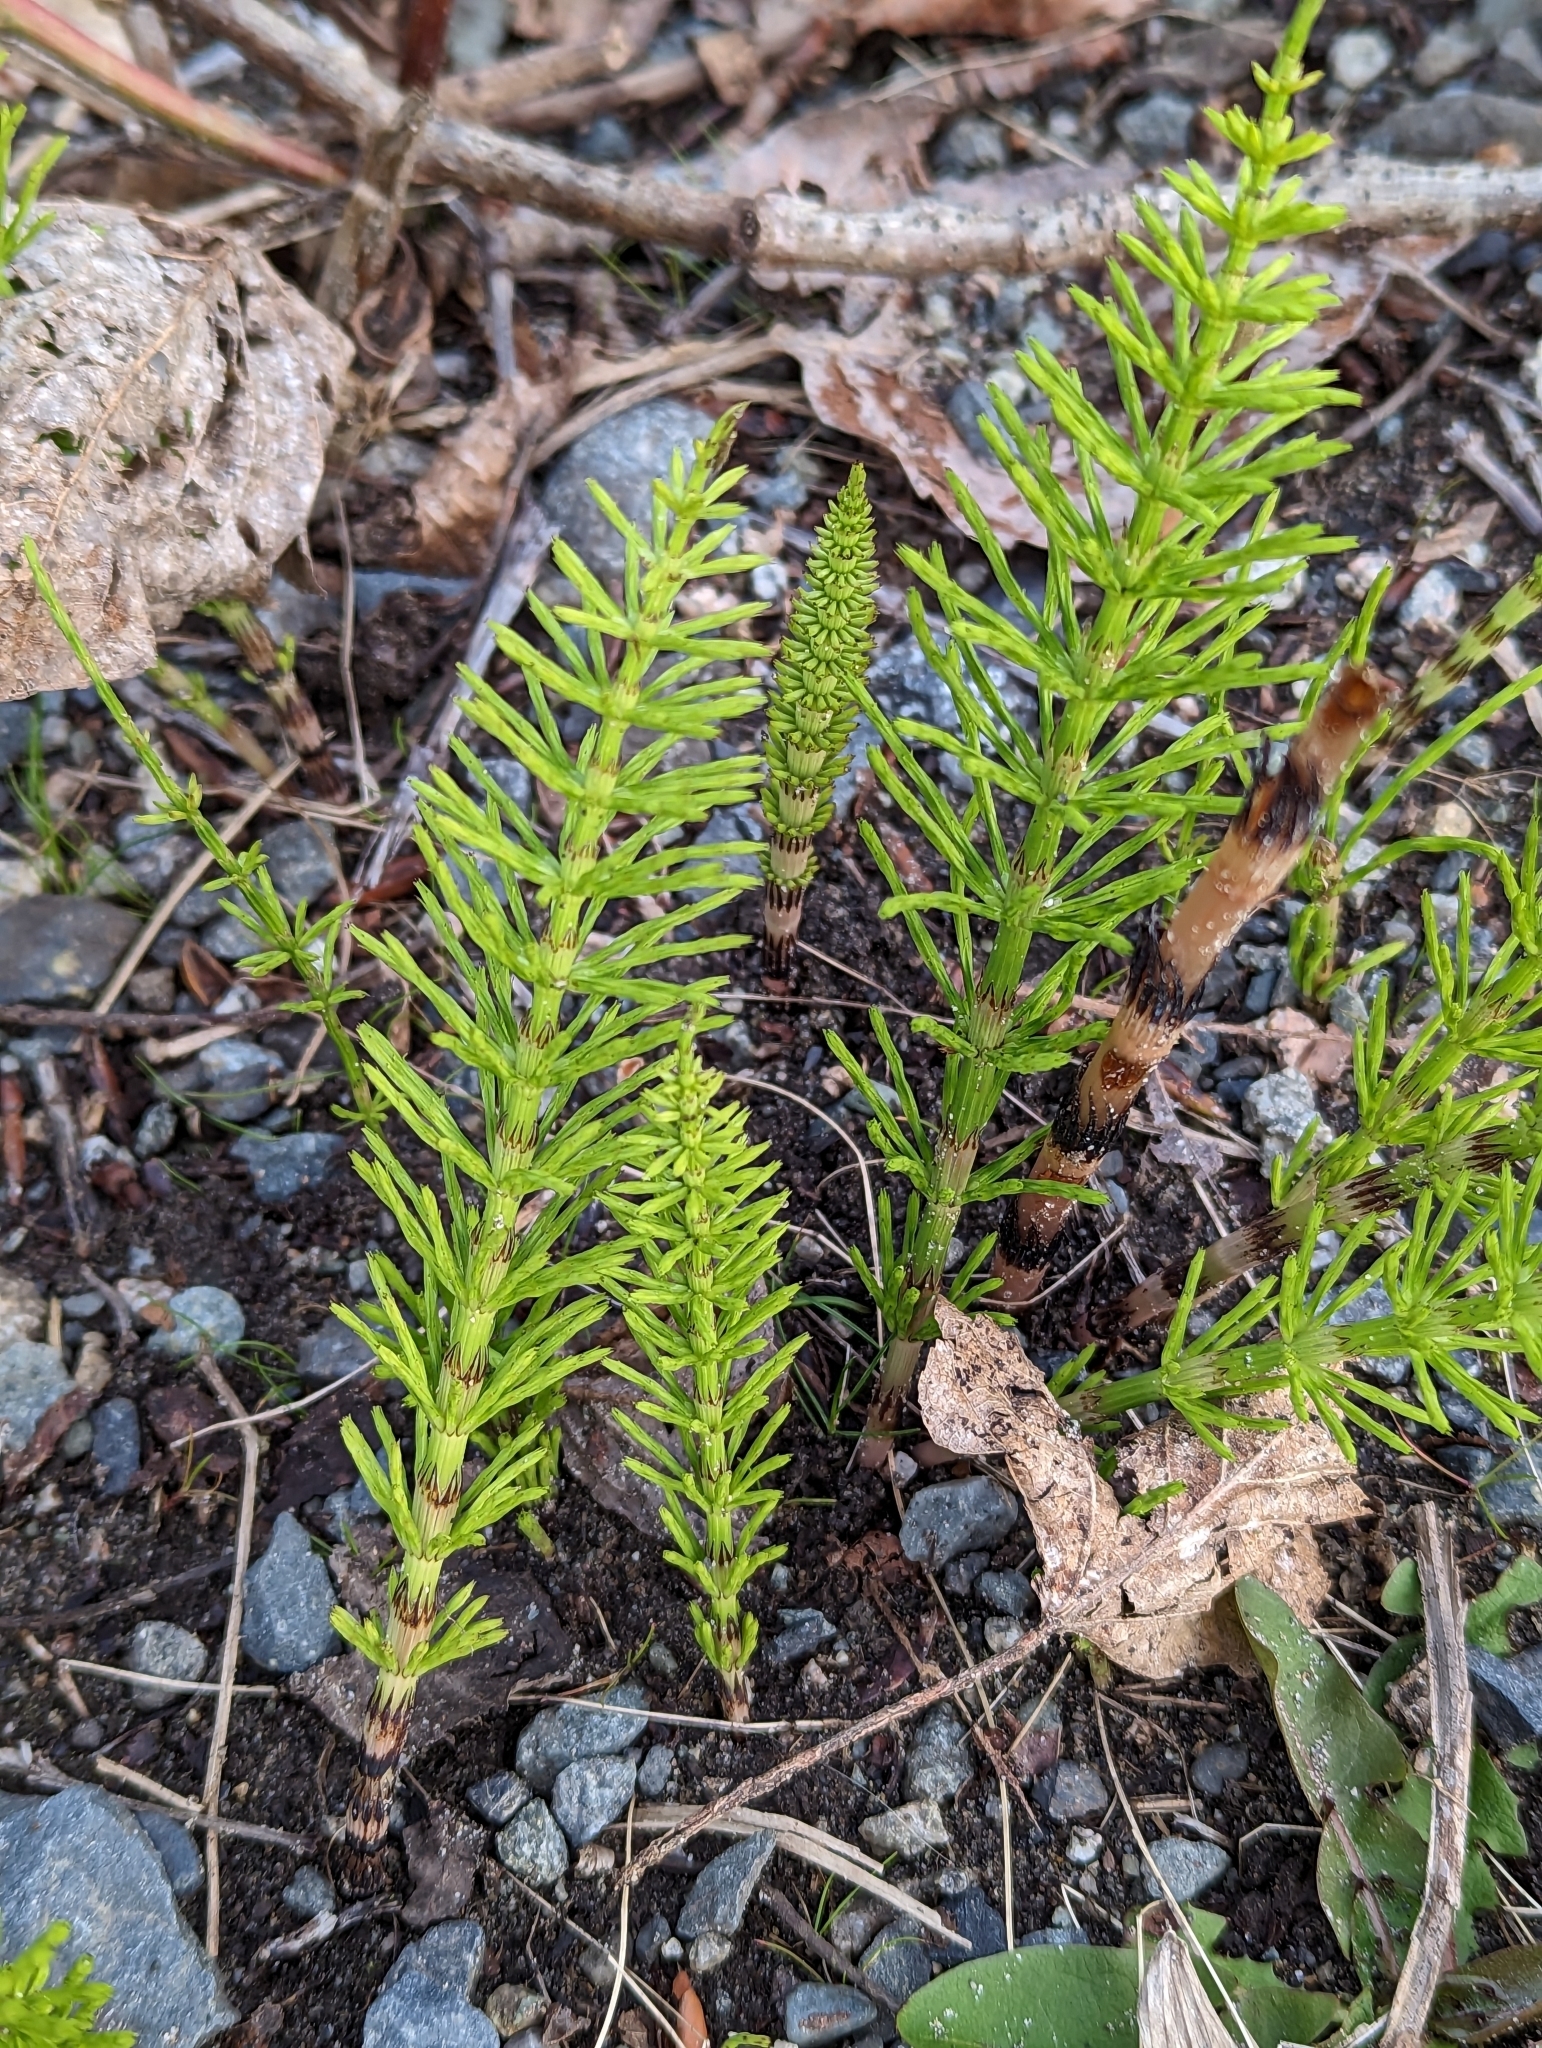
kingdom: Plantae
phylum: Tracheophyta
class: Polypodiopsida
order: Equisetales
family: Equisetaceae
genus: Equisetum
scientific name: Equisetum arvense
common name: Field horsetail
